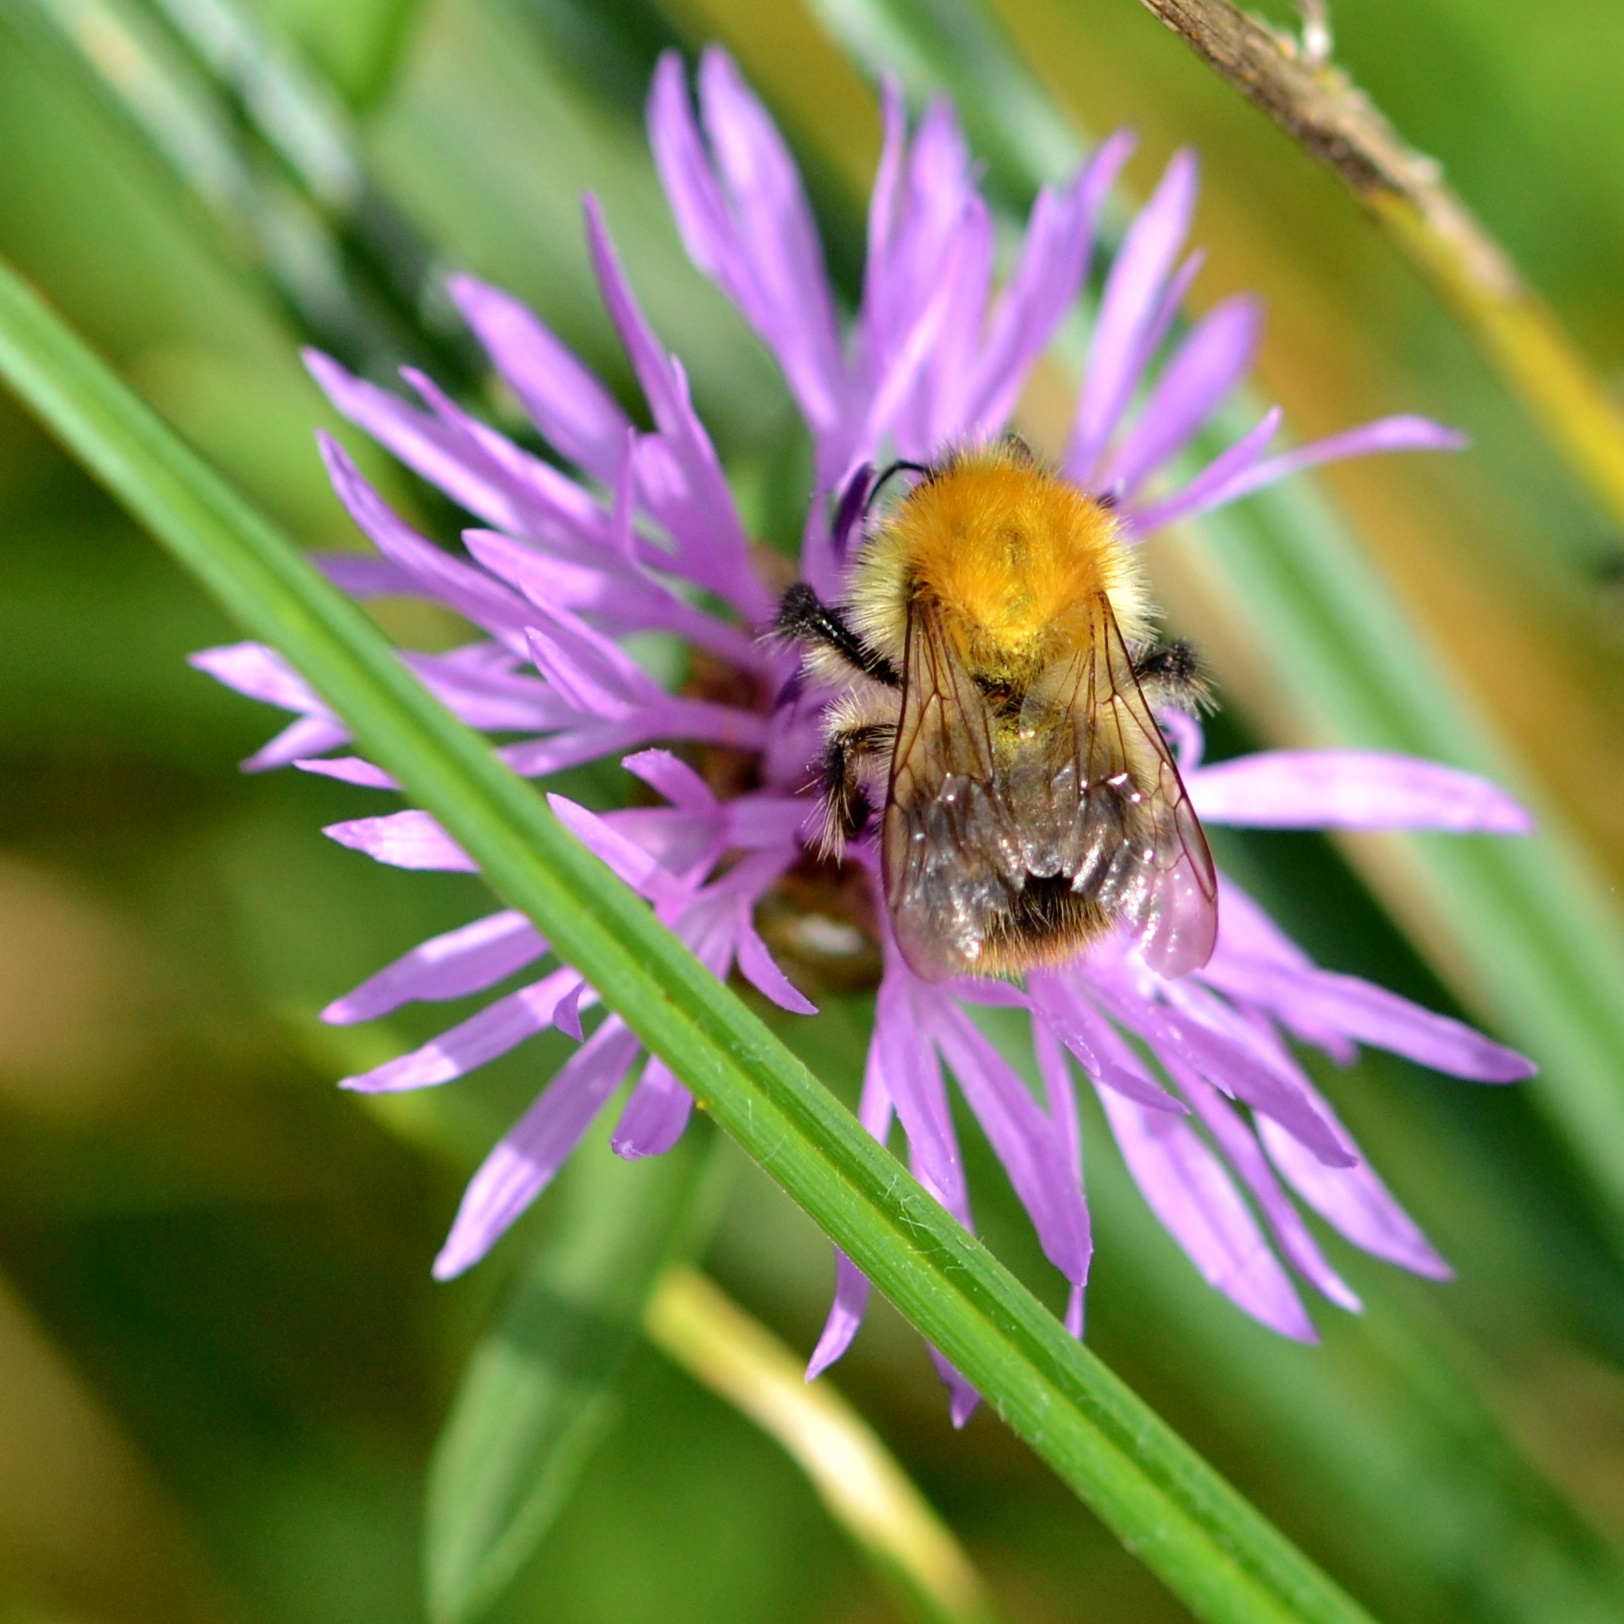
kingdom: Animalia
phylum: Arthropoda
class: Insecta
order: Hymenoptera
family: Apidae
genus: Bombus
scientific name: Bombus pascuorum
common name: Common carder bee
